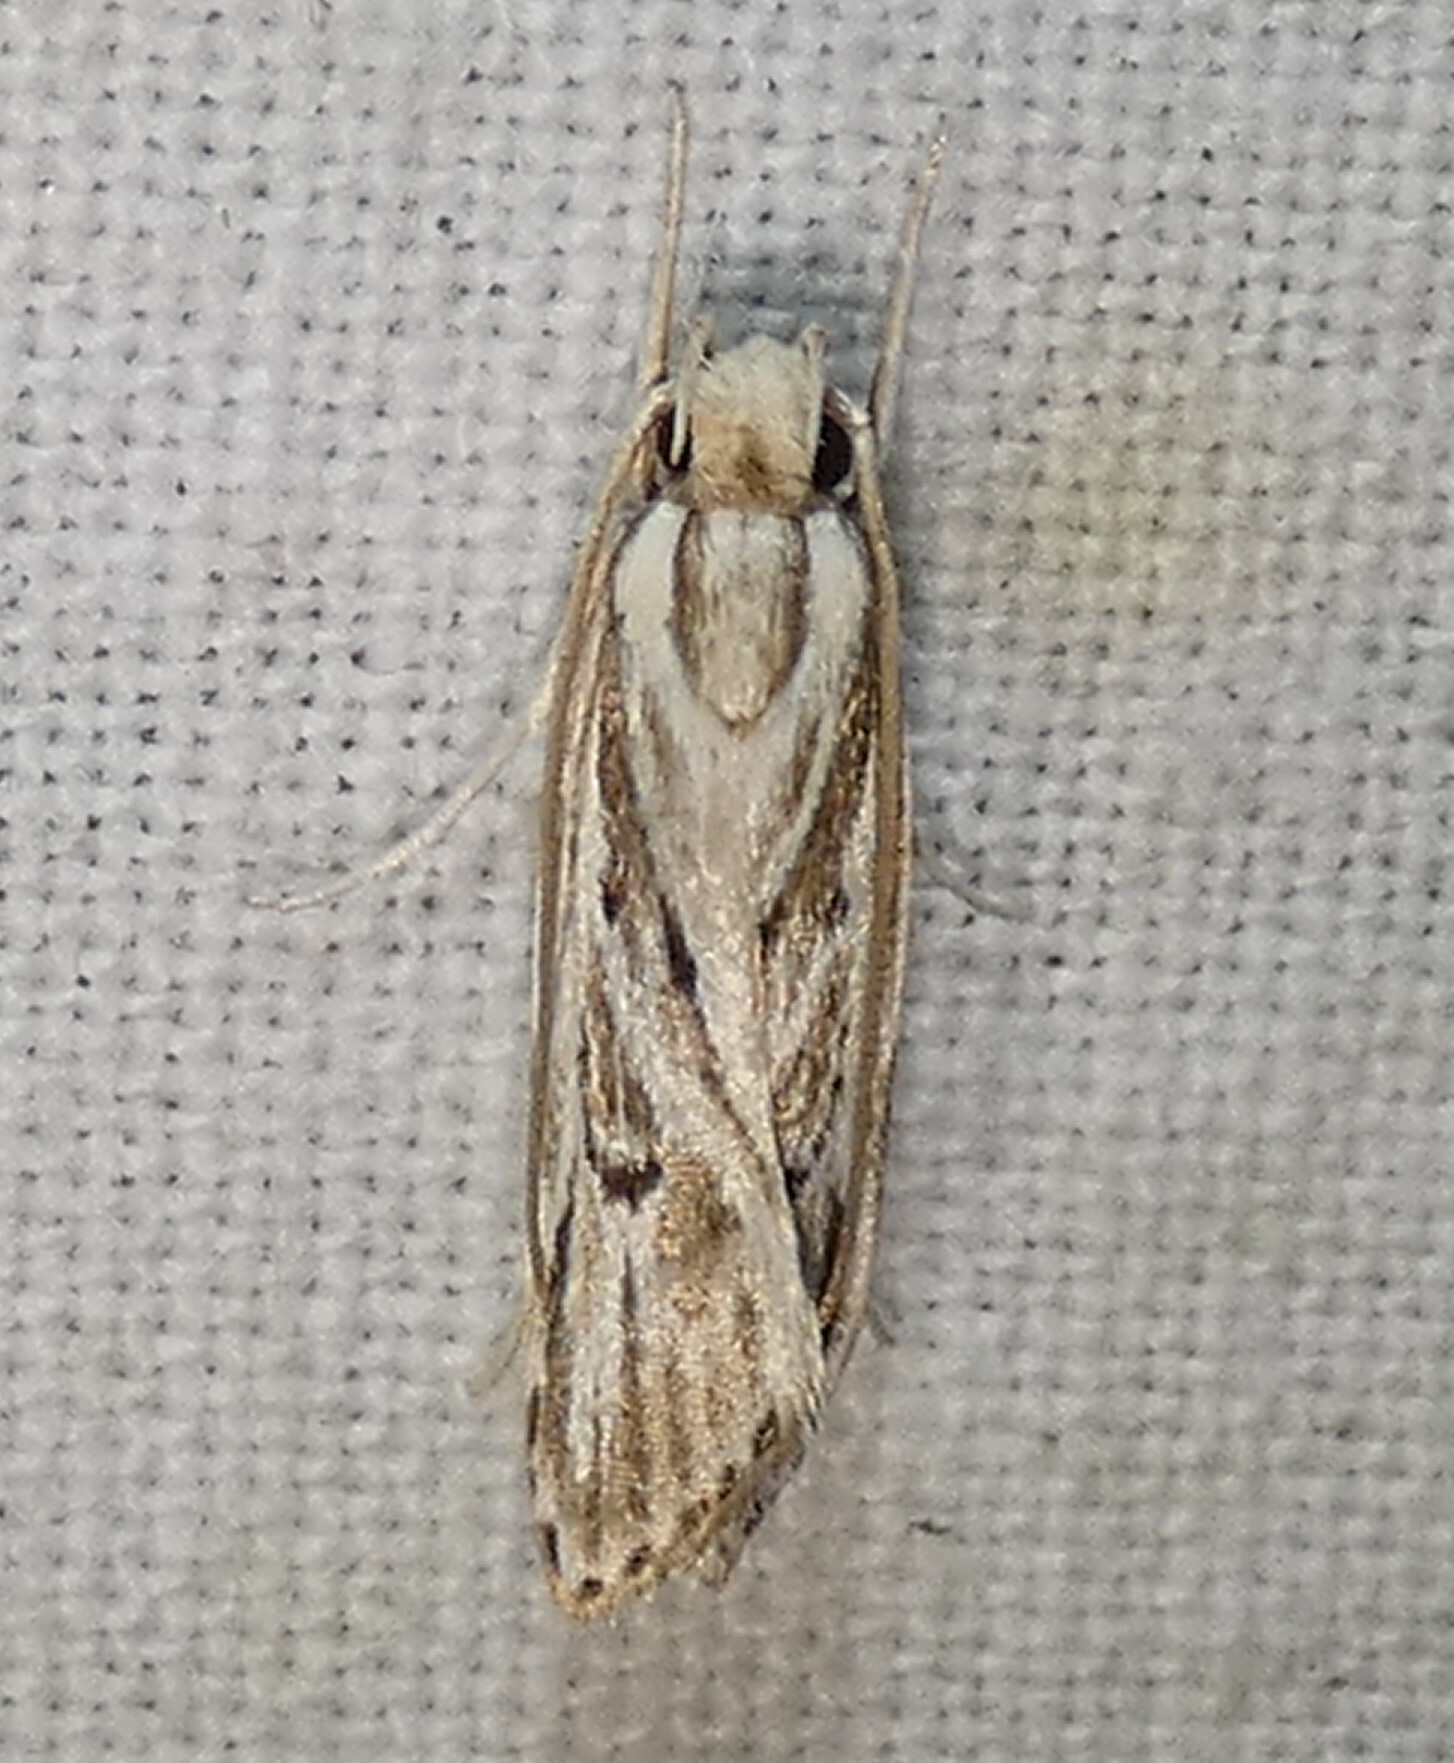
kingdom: Animalia
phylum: Arthropoda
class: Insecta
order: Lepidoptera
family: Depressariidae
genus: Eupragia
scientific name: Eupragia hospita
